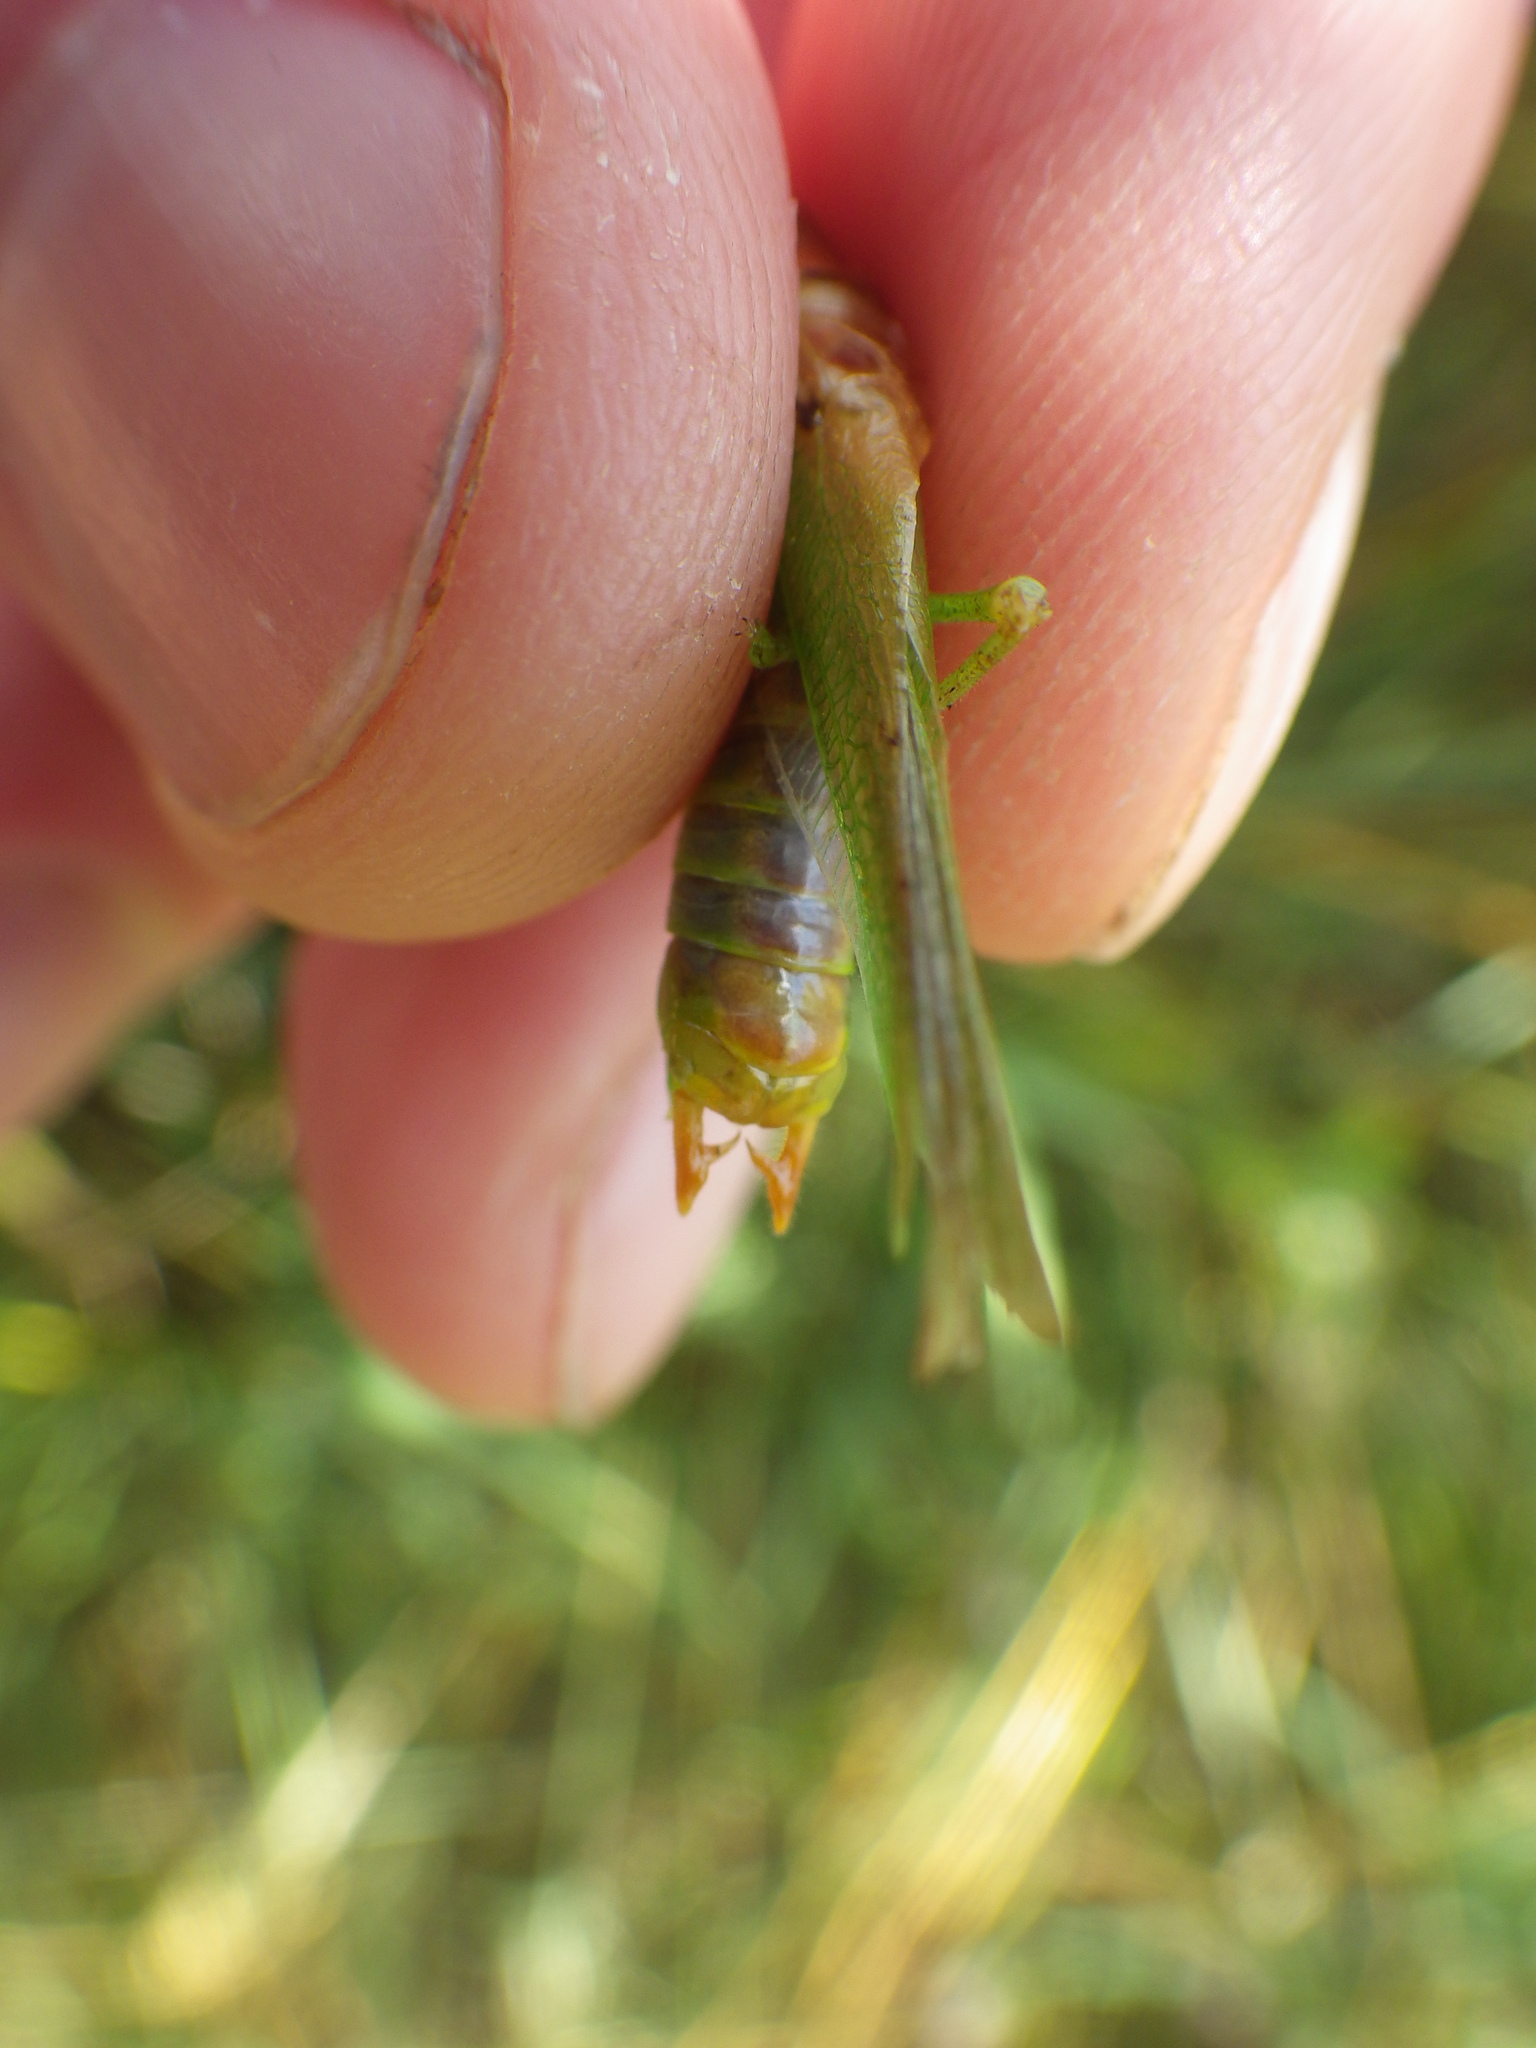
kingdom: Animalia
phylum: Arthropoda
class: Insecta
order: Orthoptera
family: Tettigoniidae
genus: Orchelimum
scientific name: Orchelimum gladiator
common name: Gladiator meadow katydid
